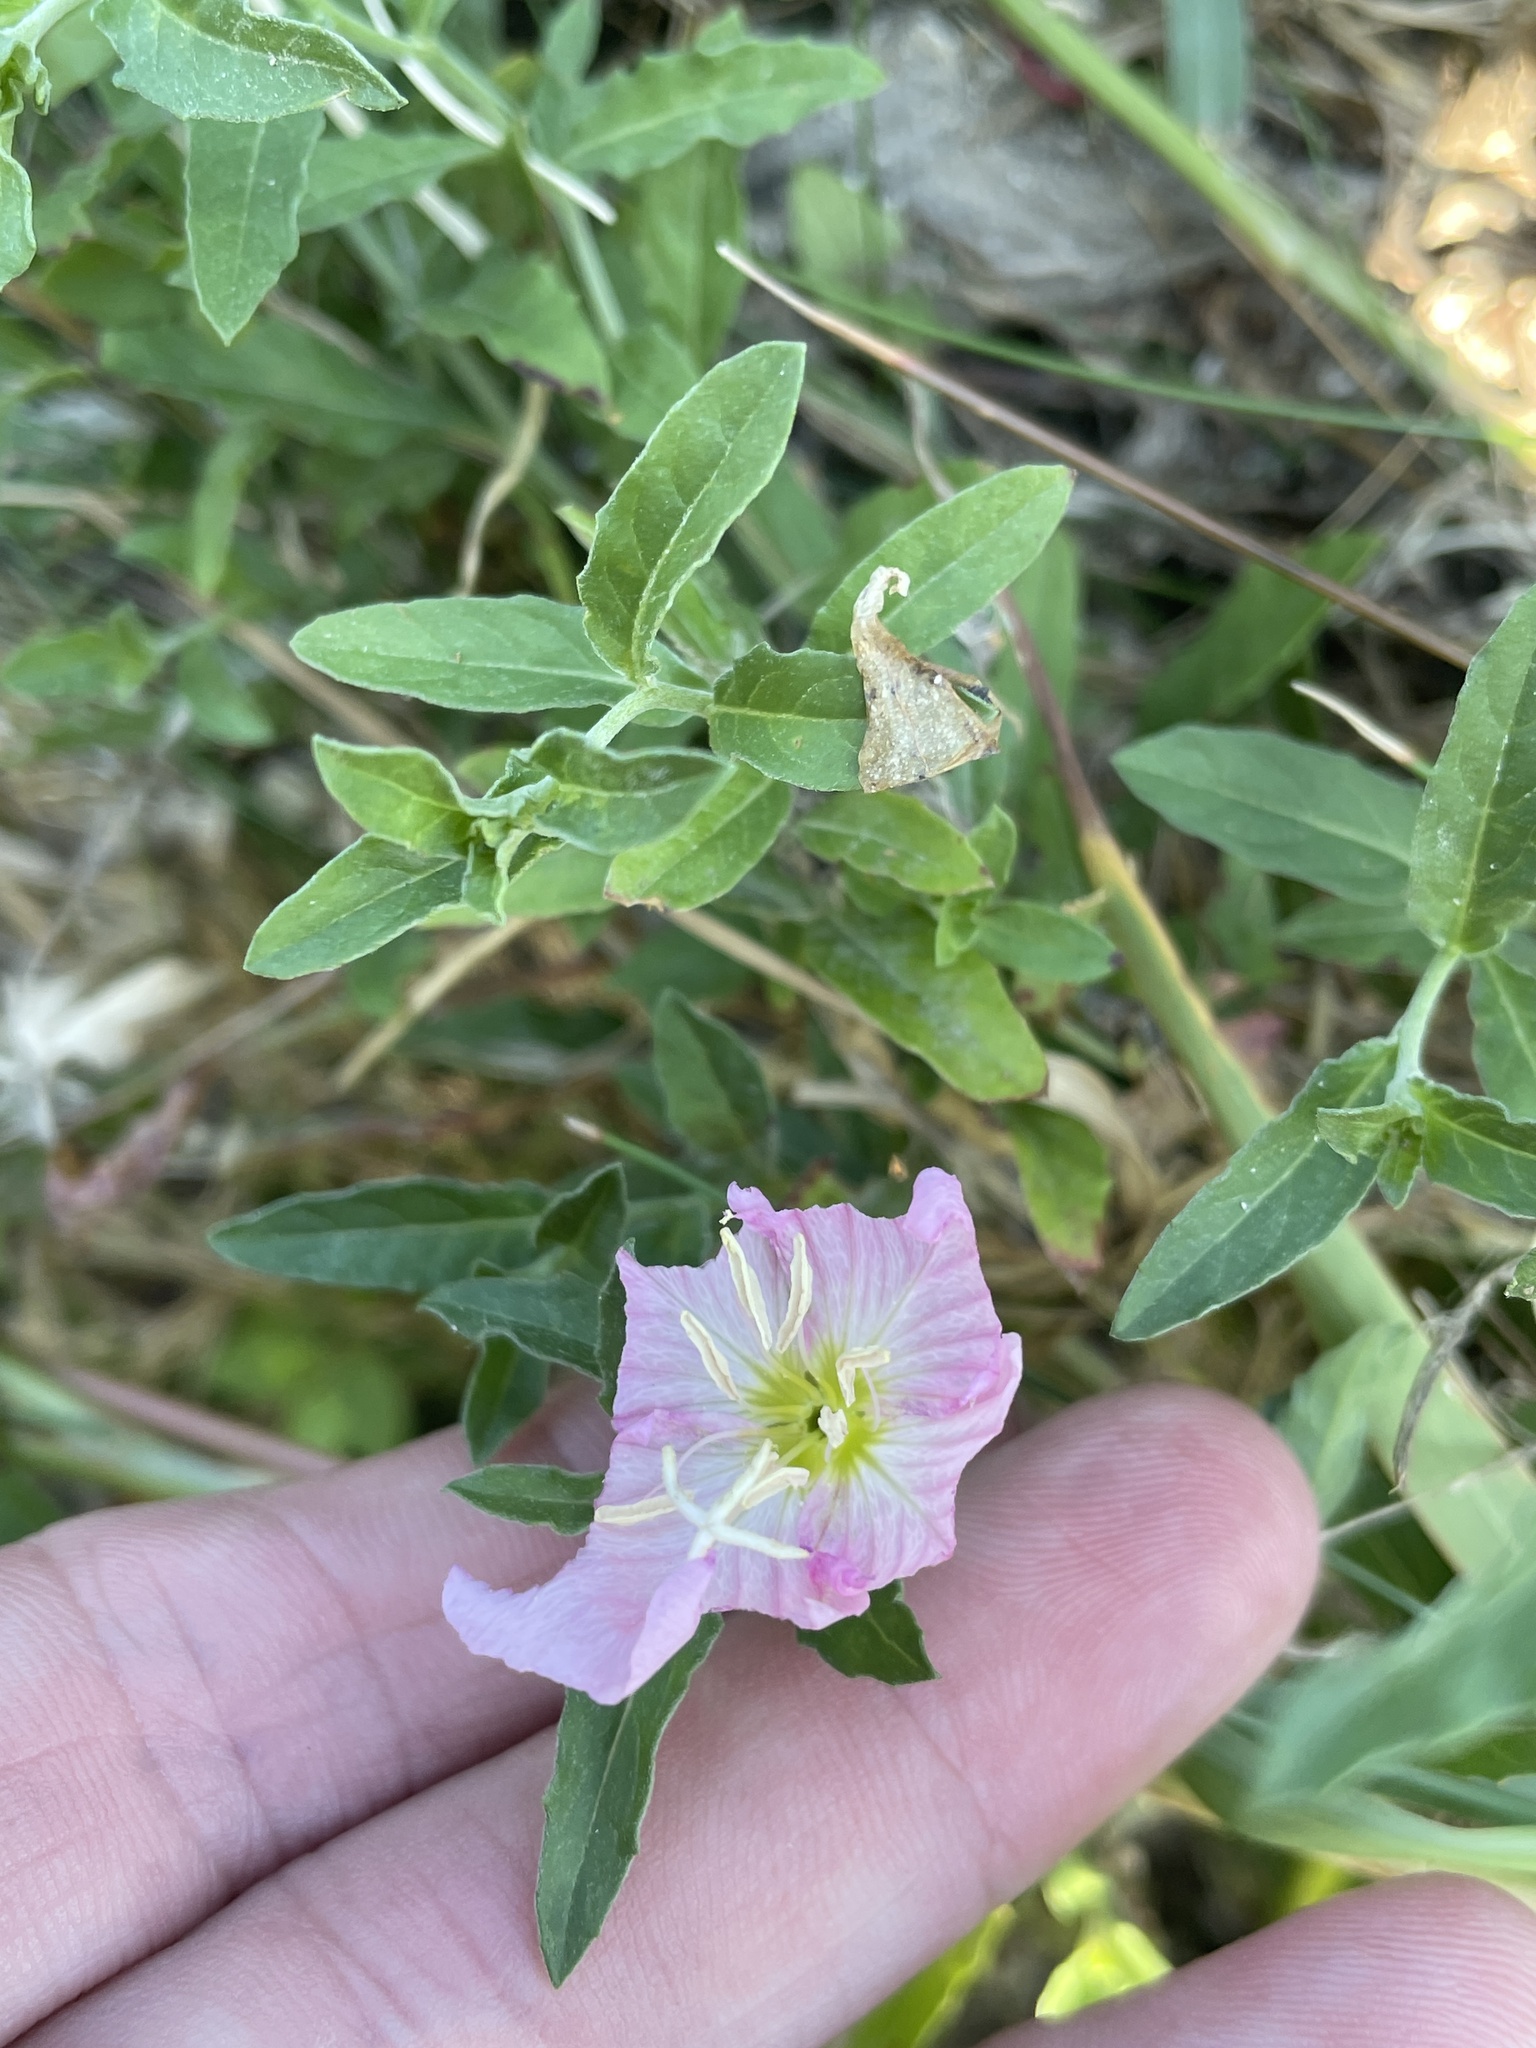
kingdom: Plantae
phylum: Tracheophyta
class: Magnoliopsida
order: Myrtales
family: Onagraceae
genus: Oenothera
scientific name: Oenothera speciosa
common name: White evening-primrose
